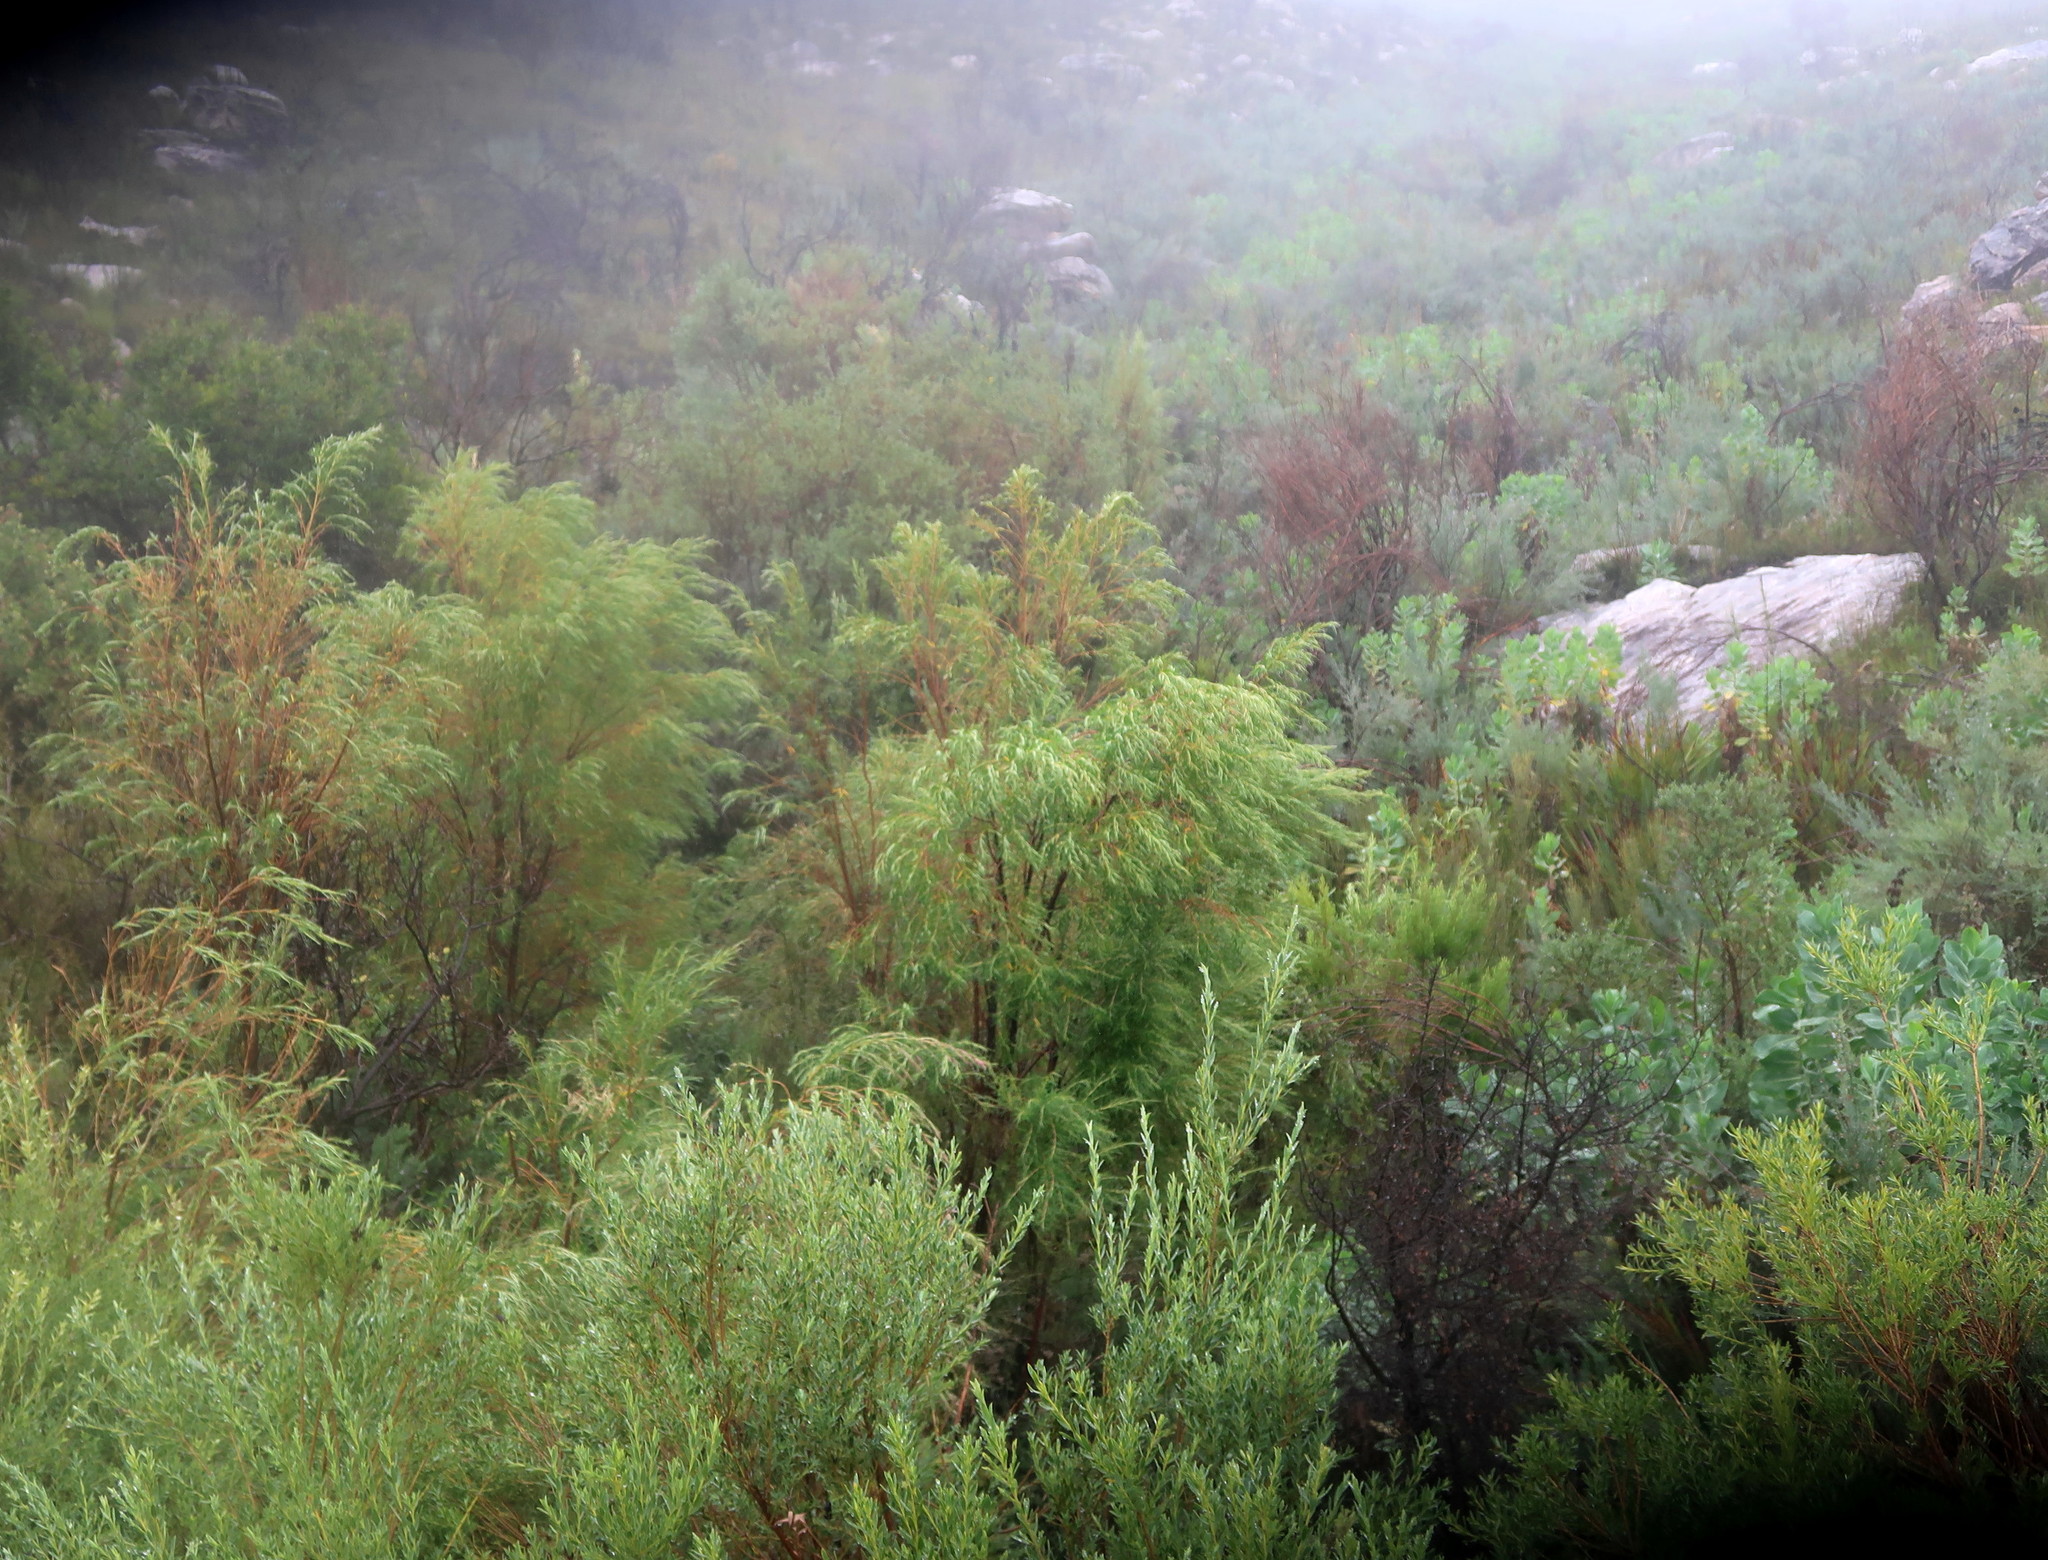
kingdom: Plantae
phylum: Tracheophyta
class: Magnoliopsida
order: Sapindales
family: Rutaceae
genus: Empleurum
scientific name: Empleurum unicapsulare
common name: False buchu
